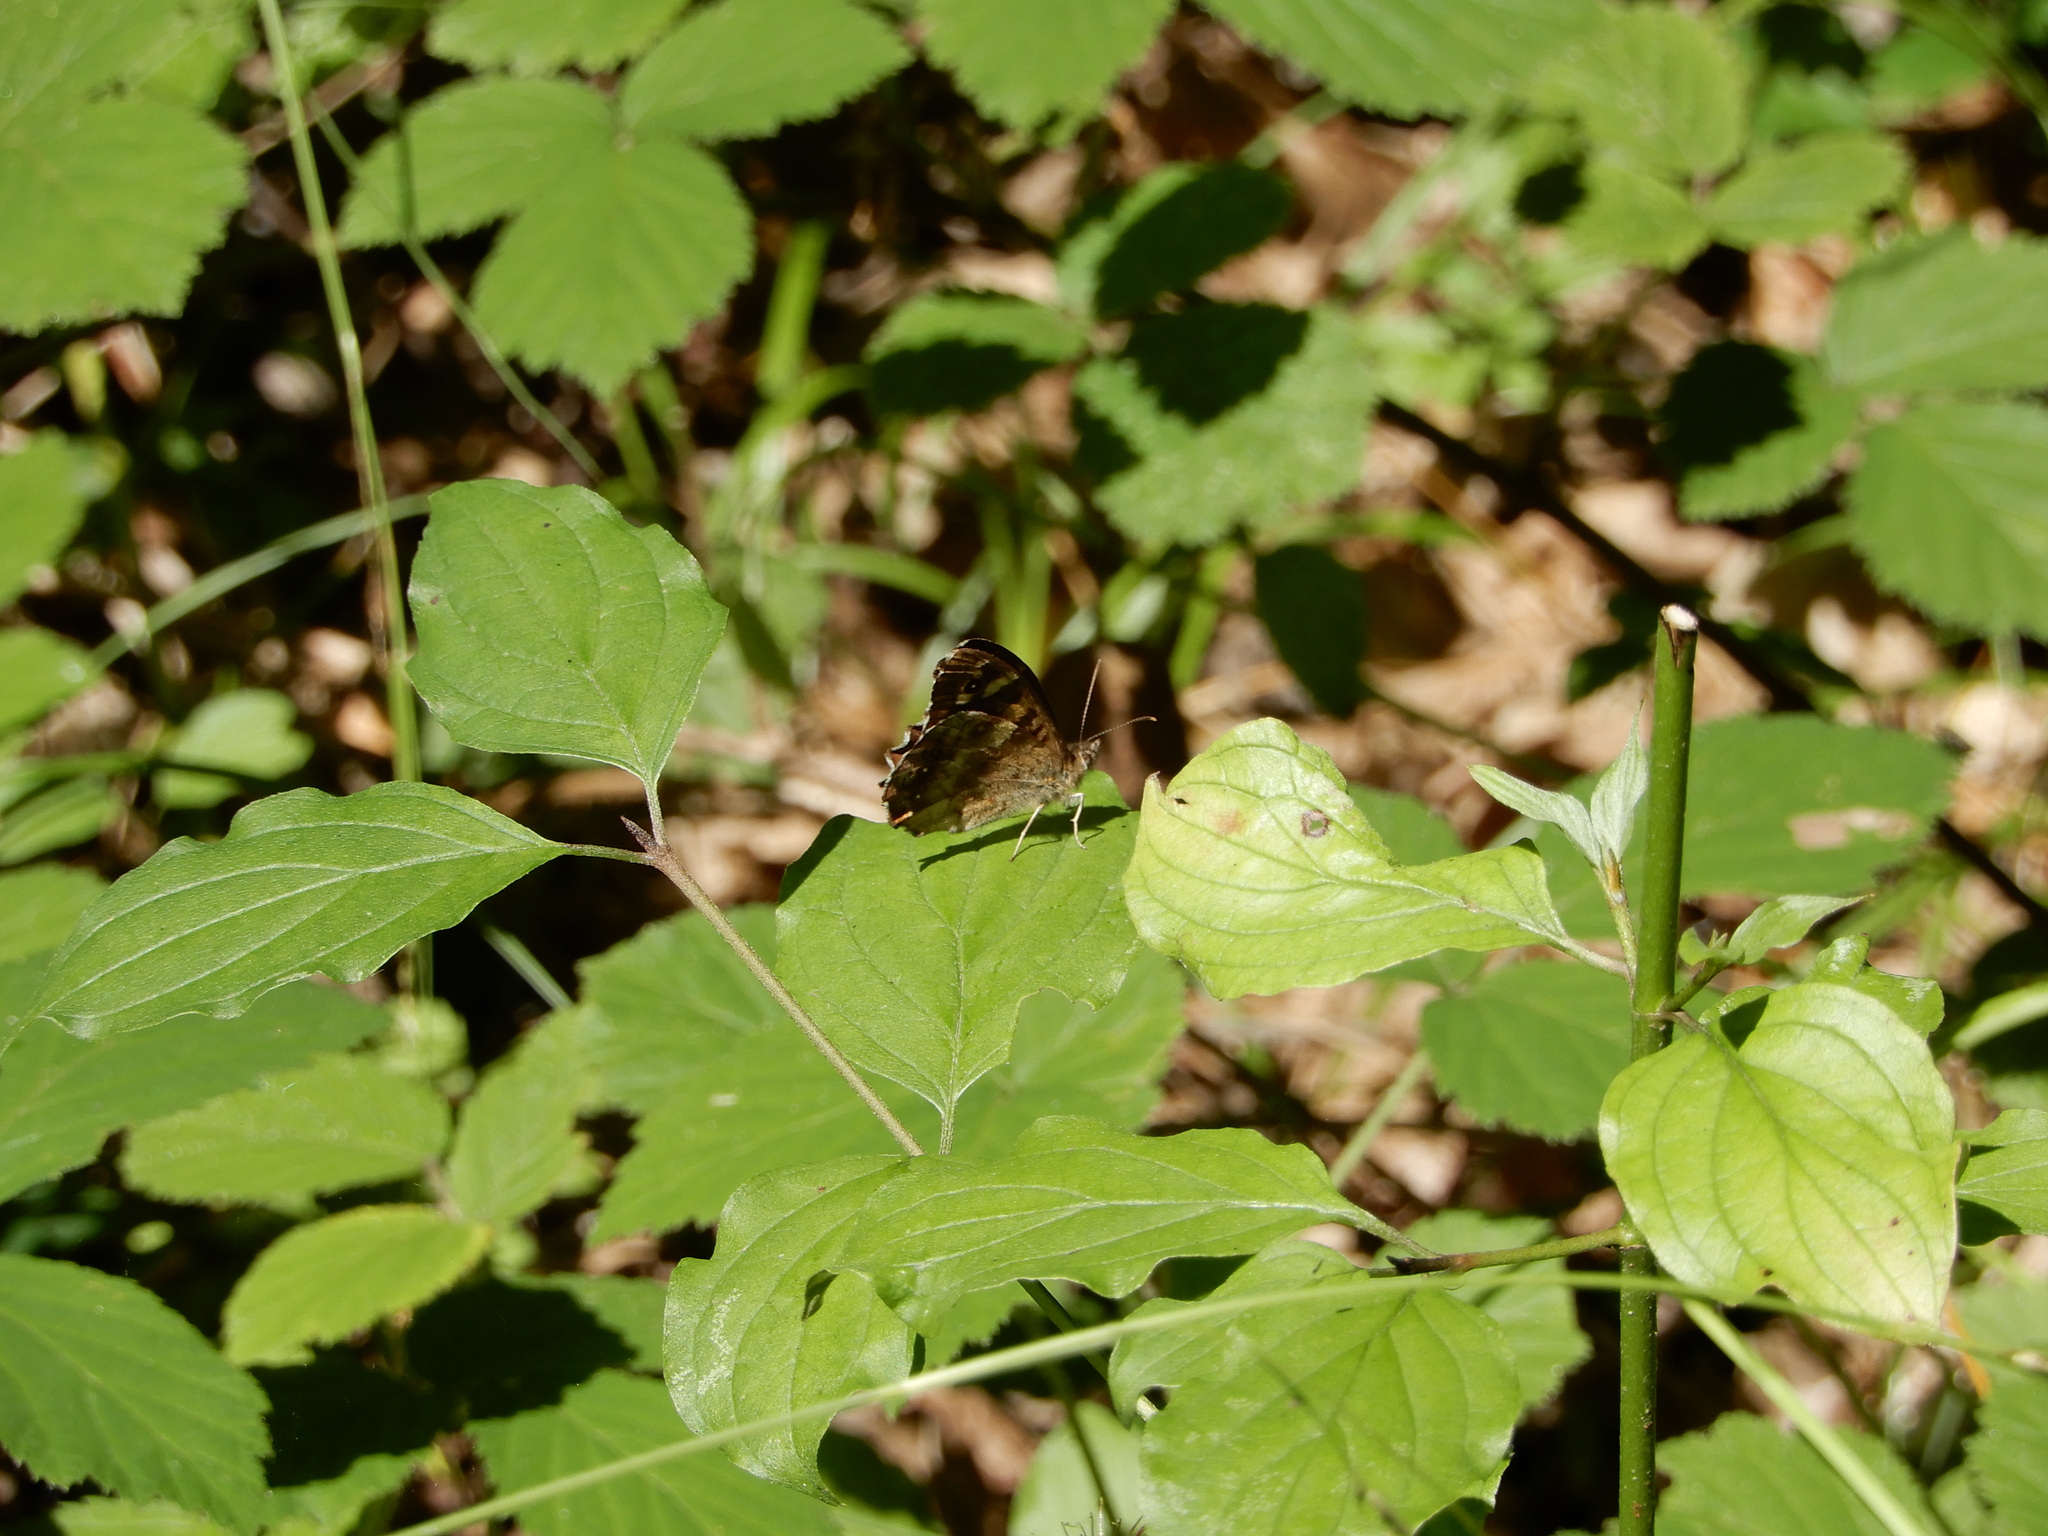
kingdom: Animalia
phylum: Arthropoda
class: Insecta
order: Lepidoptera
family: Nymphalidae
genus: Pararge
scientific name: Pararge aegeria
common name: Speckled wood
